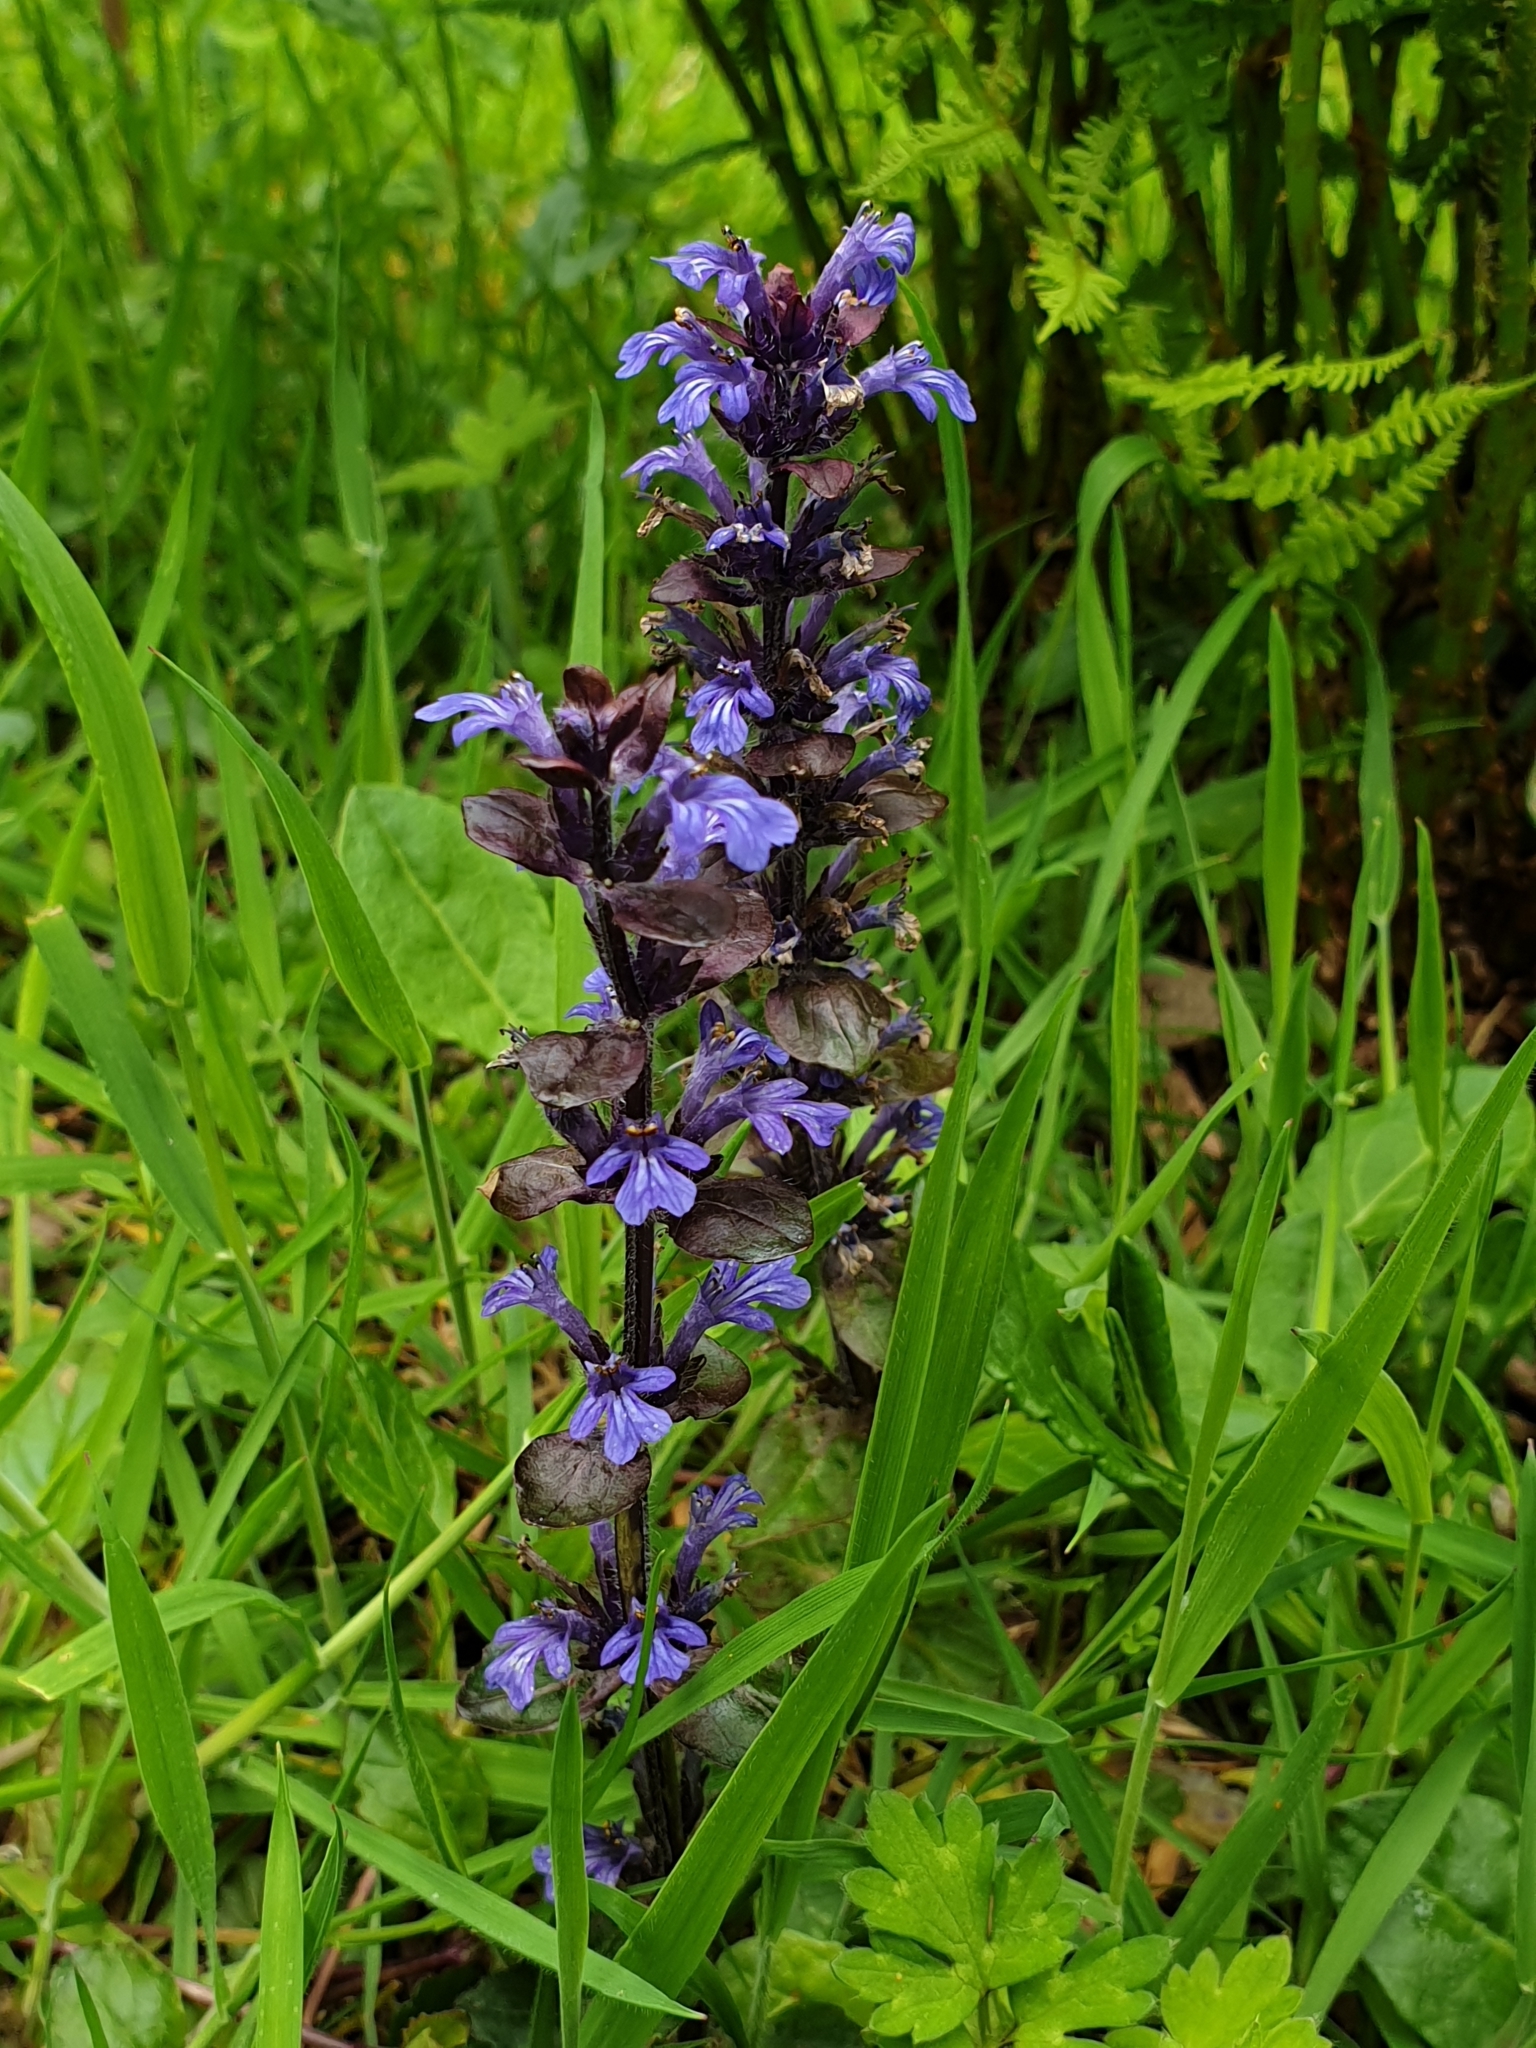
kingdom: Plantae
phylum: Tracheophyta
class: Magnoliopsida
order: Lamiales
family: Lamiaceae
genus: Ajuga
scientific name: Ajuga reptans
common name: Bugle
